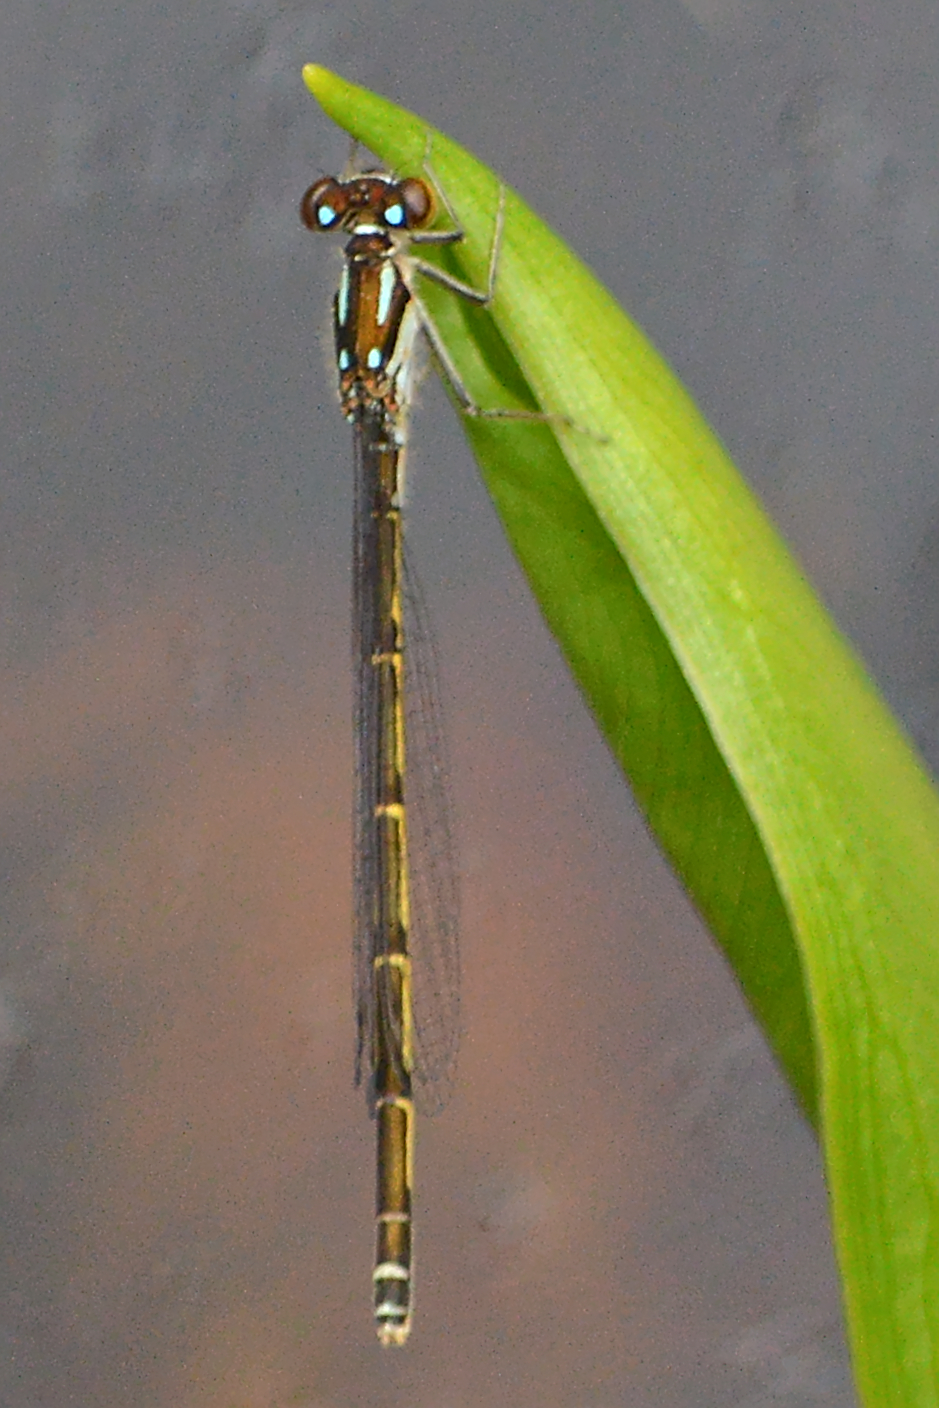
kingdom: Animalia
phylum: Arthropoda
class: Insecta
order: Odonata
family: Coenagrionidae
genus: Ischnura
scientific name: Ischnura posita
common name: Fragile forktail
